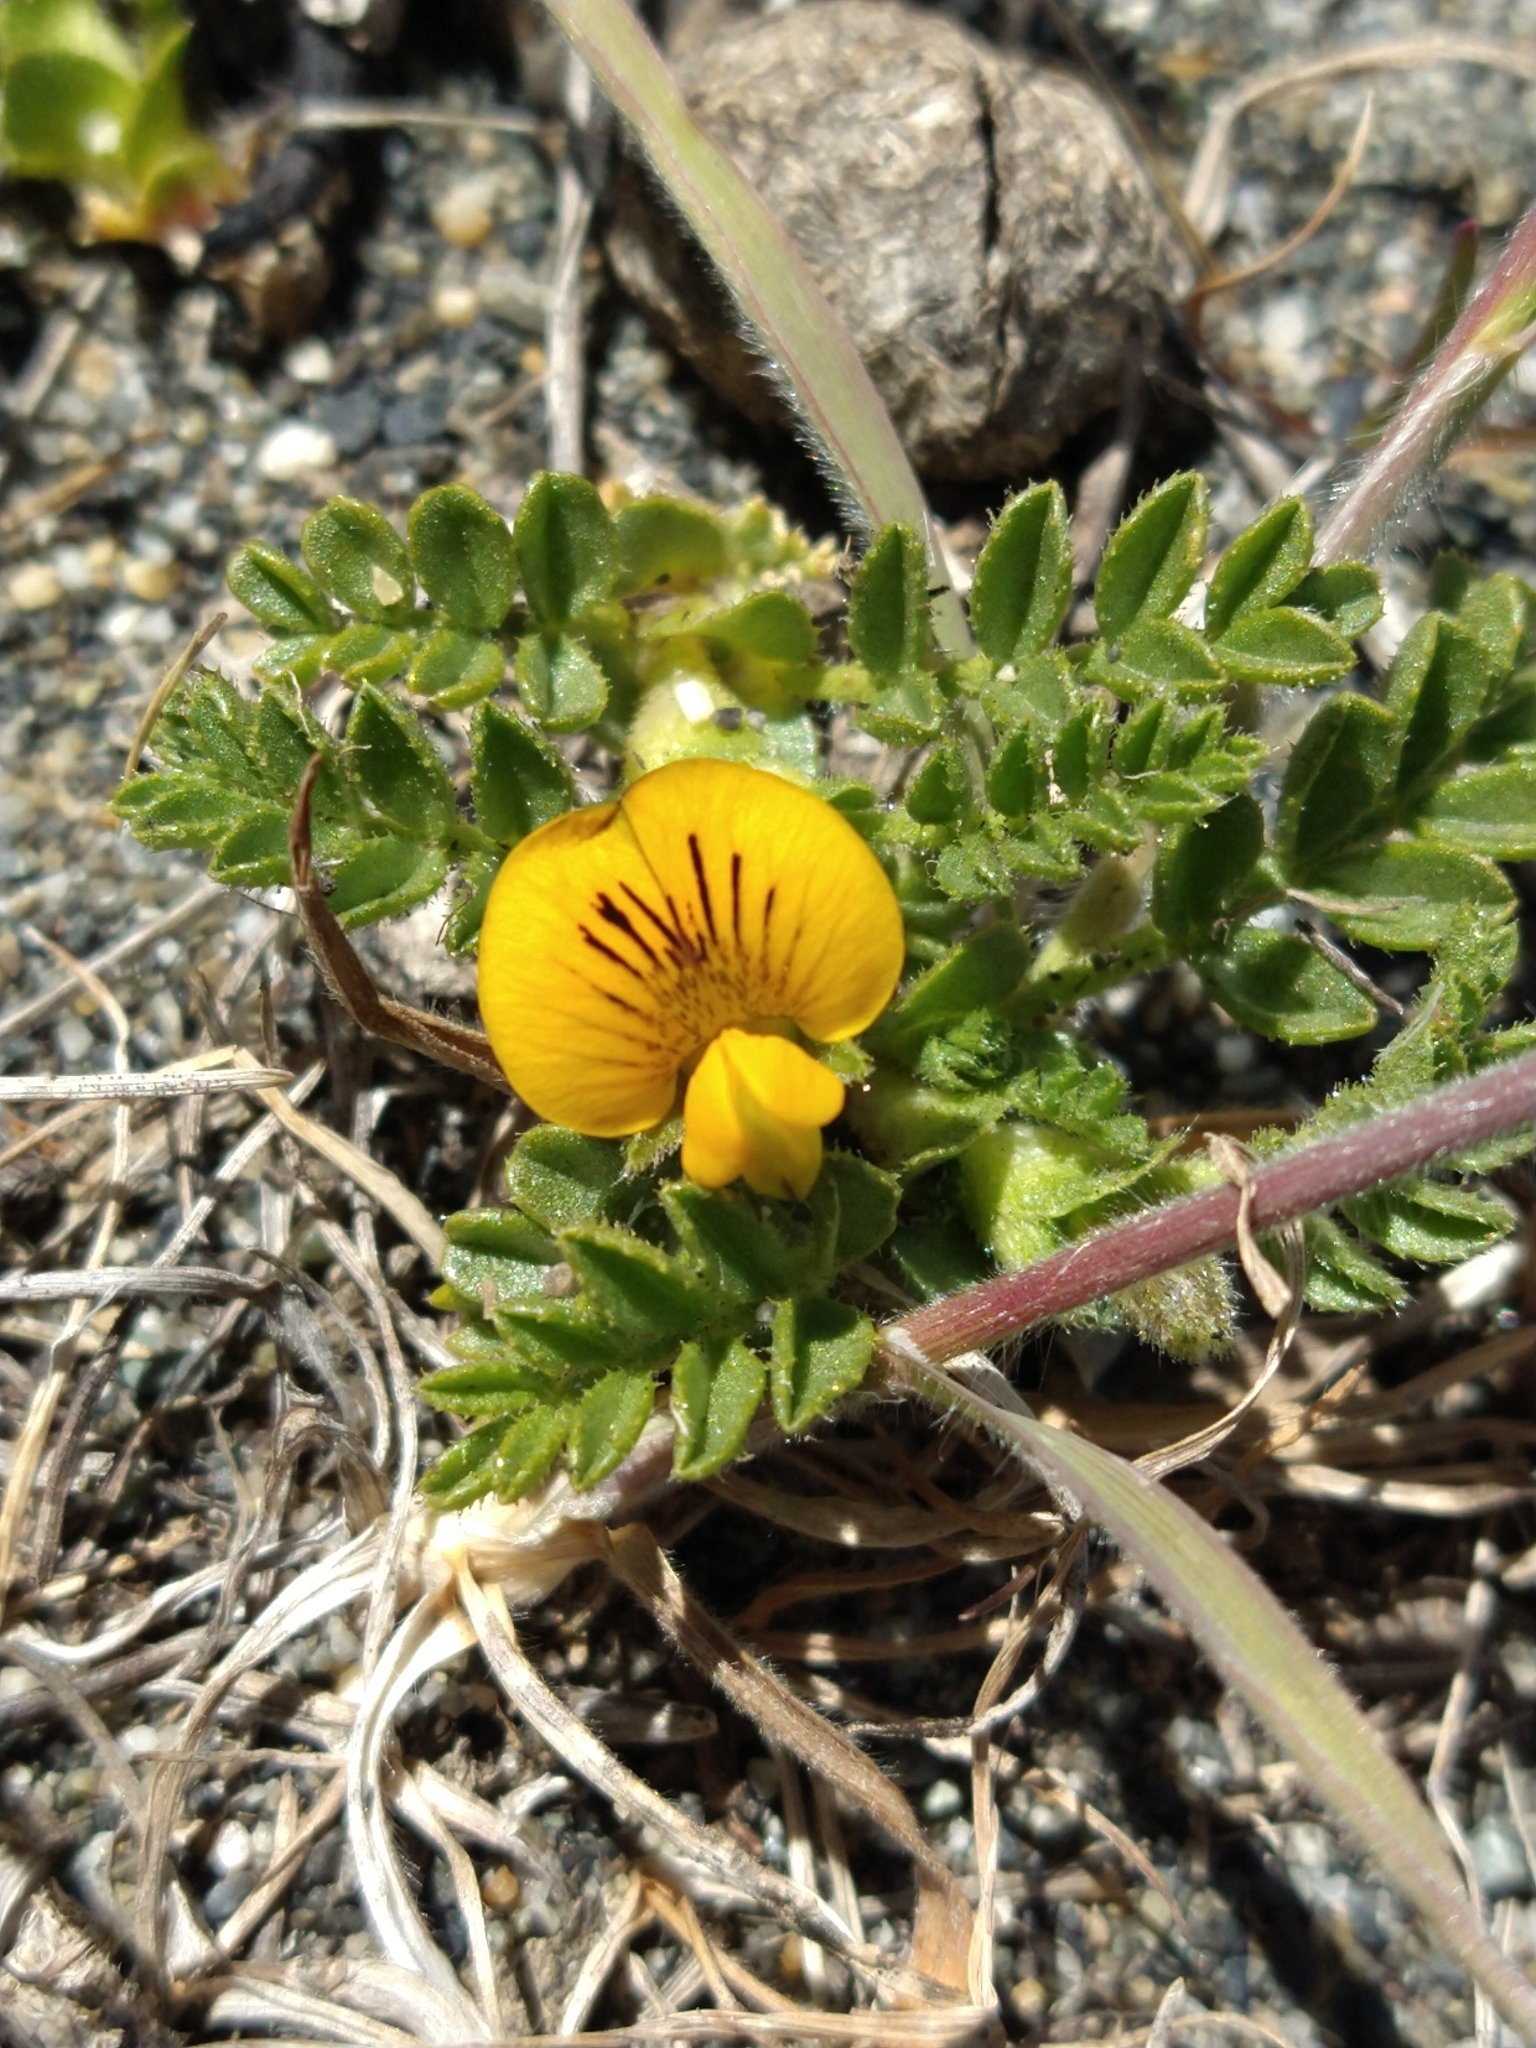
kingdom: Plantae
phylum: Tracheophyta
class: Magnoliopsida
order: Fabales
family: Fabaceae
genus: Adesmia
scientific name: Adesmia pumila
